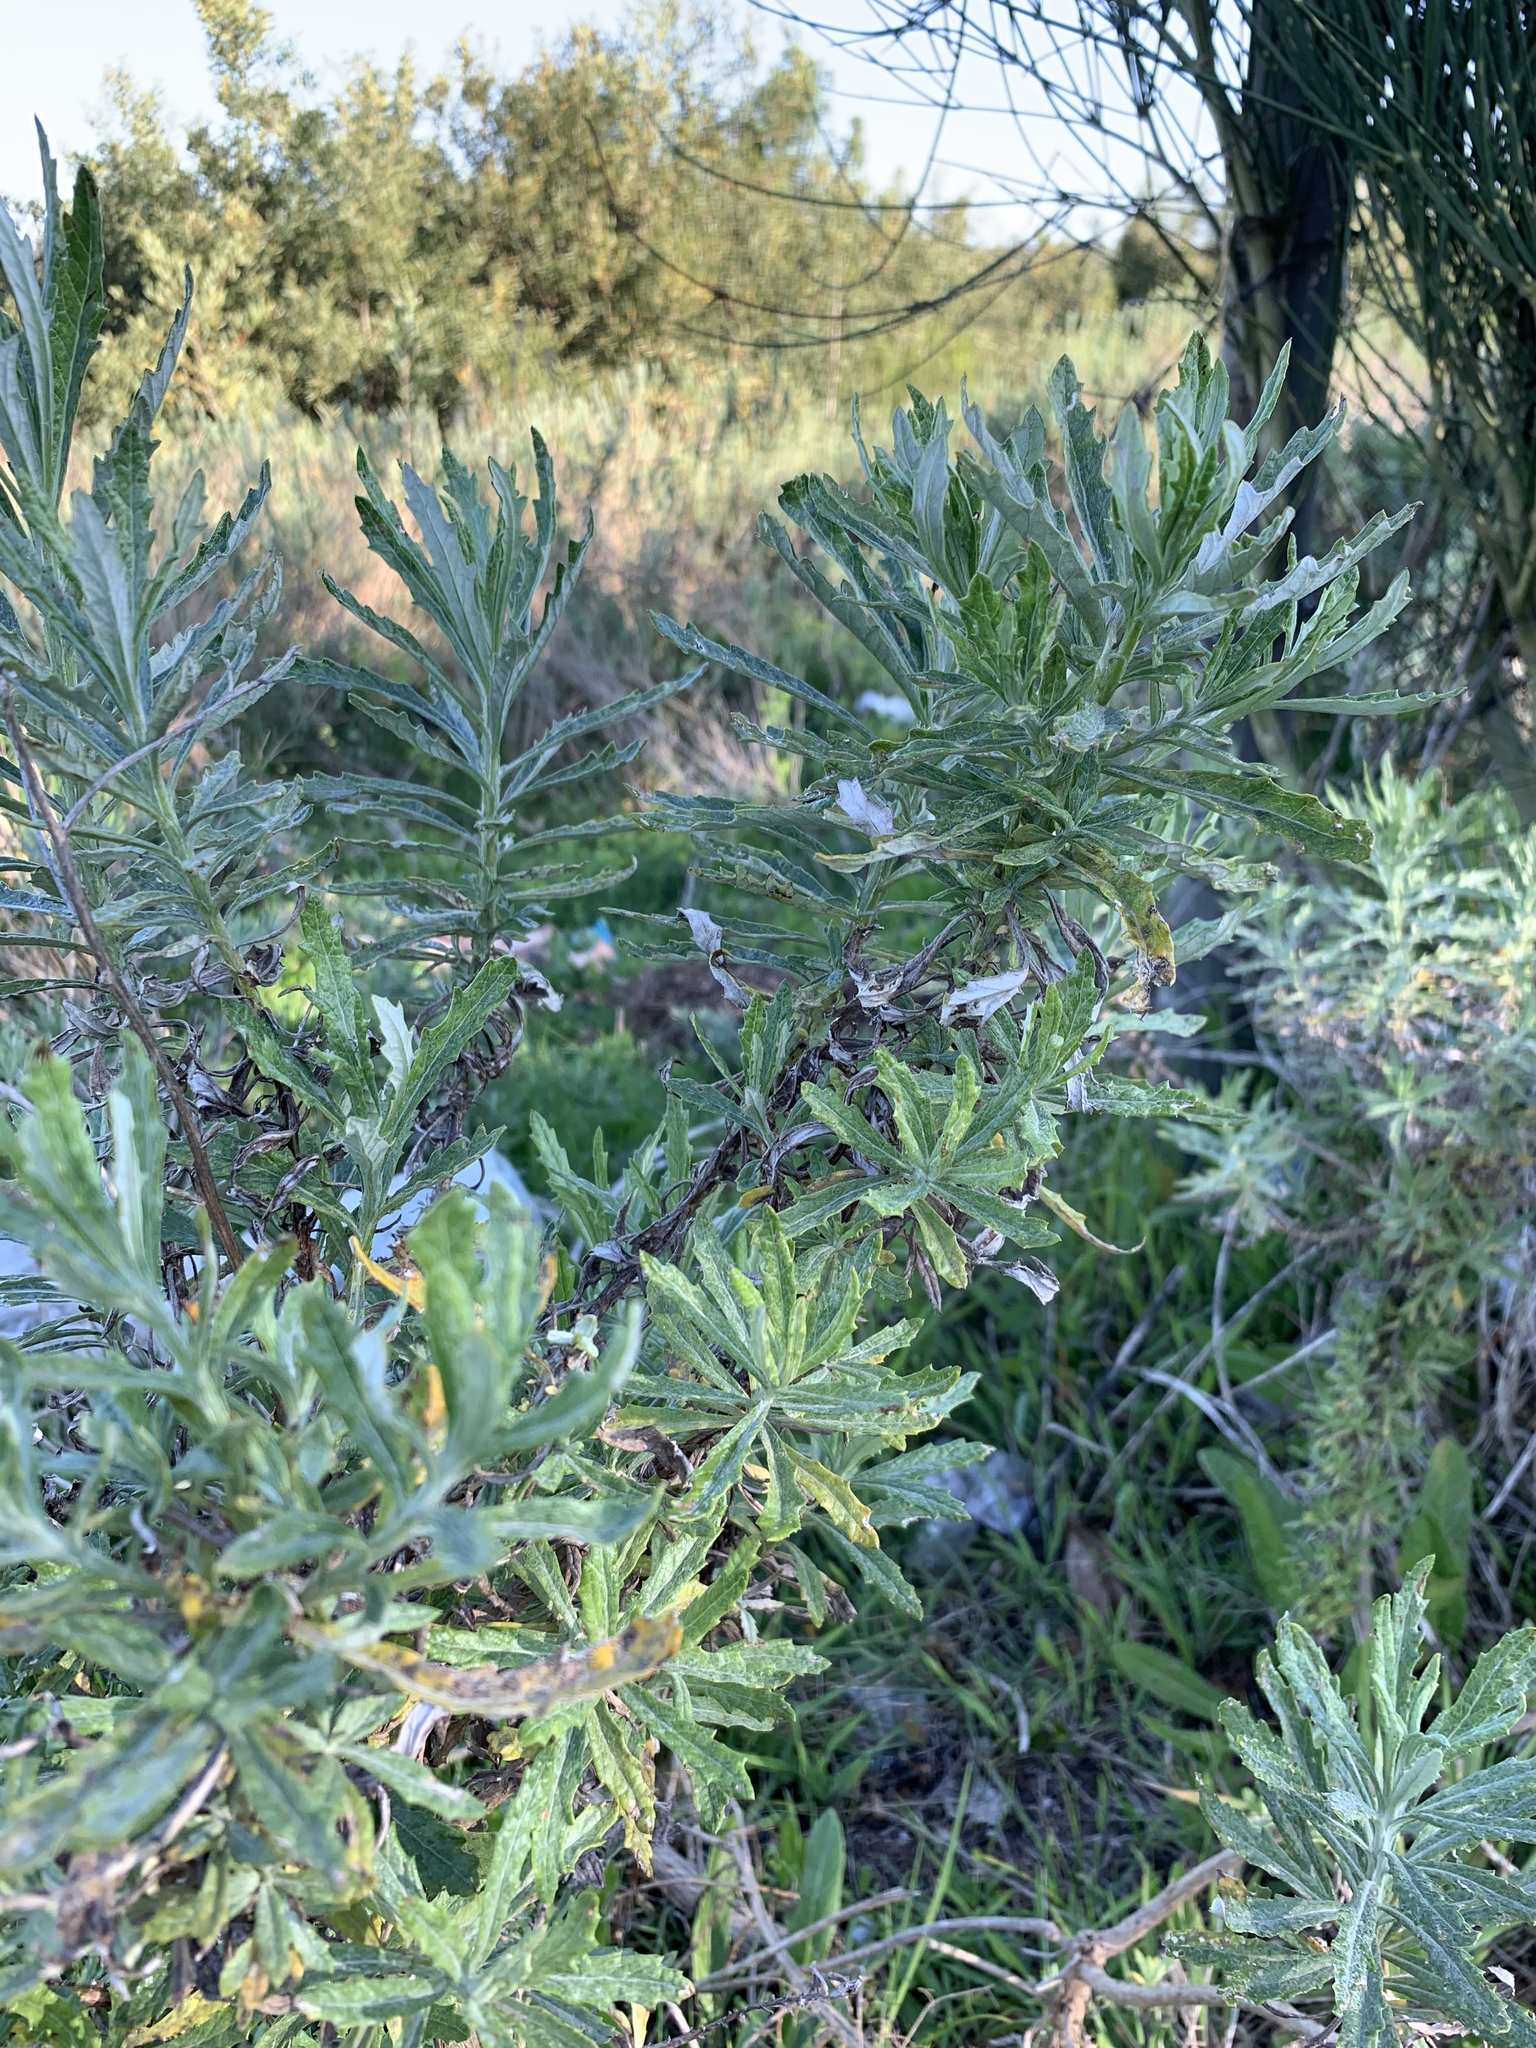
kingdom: Plantae
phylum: Tracheophyta
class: Magnoliopsida
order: Asterales
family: Asteraceae
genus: Senecio
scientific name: Senecio pterophorus
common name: Shoddy ragwort
